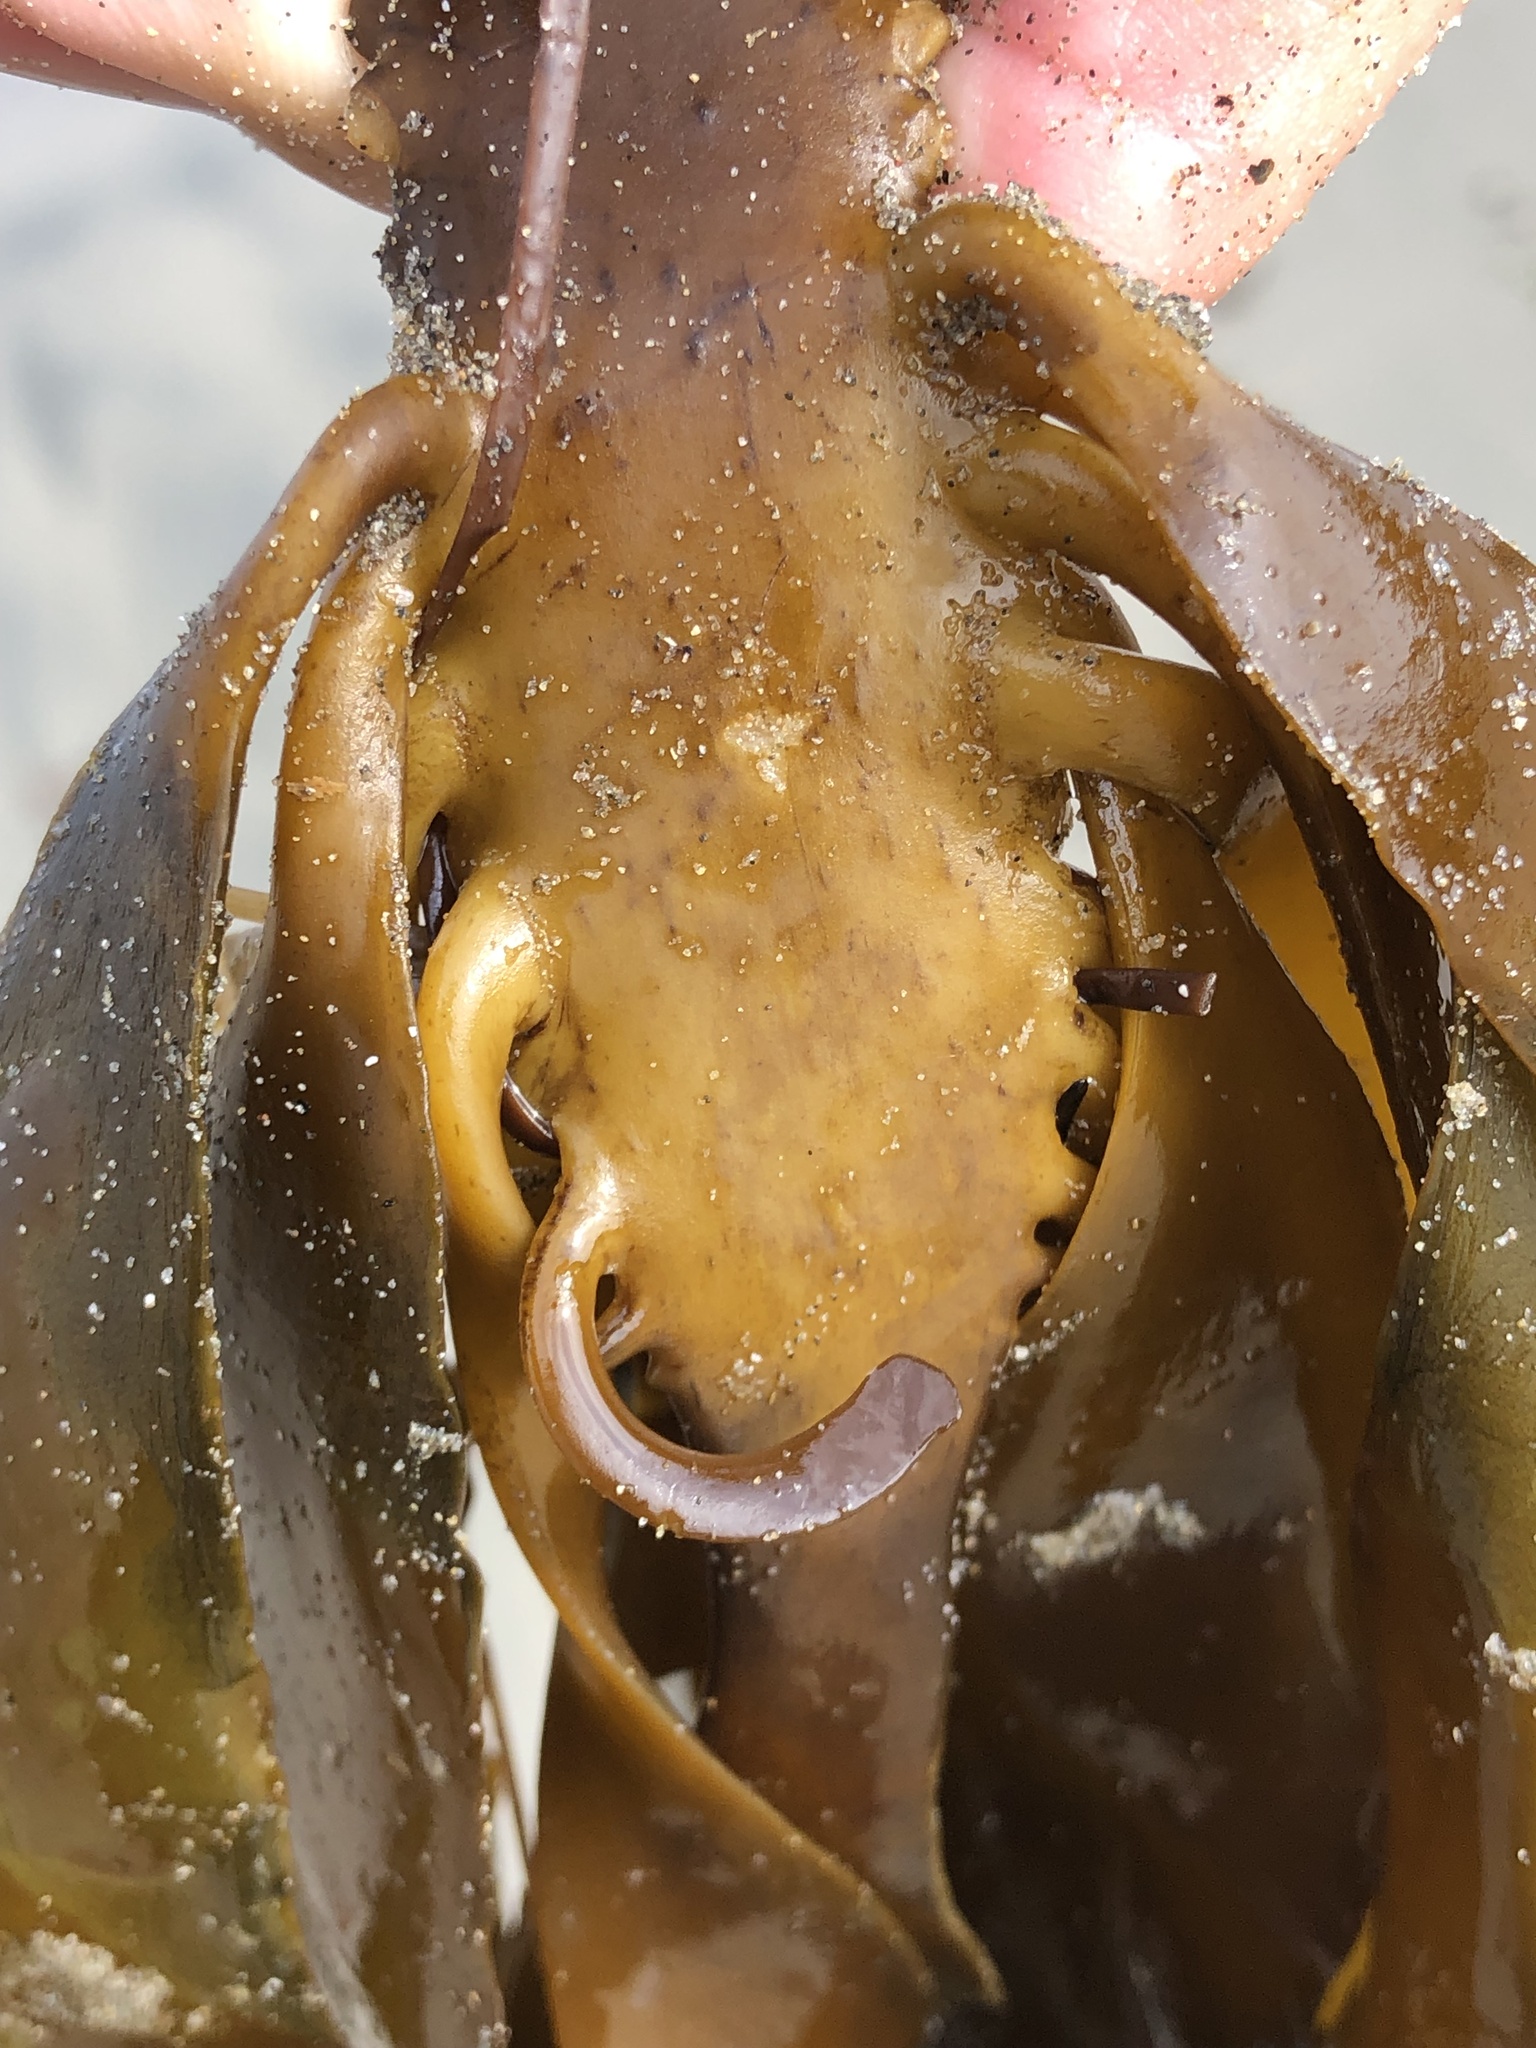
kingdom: Chromista
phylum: Ochrophyta
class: Phaeophyceae
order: Laminariales
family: Alariaceae
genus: Pterygophora
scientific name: Pterygophora californica
